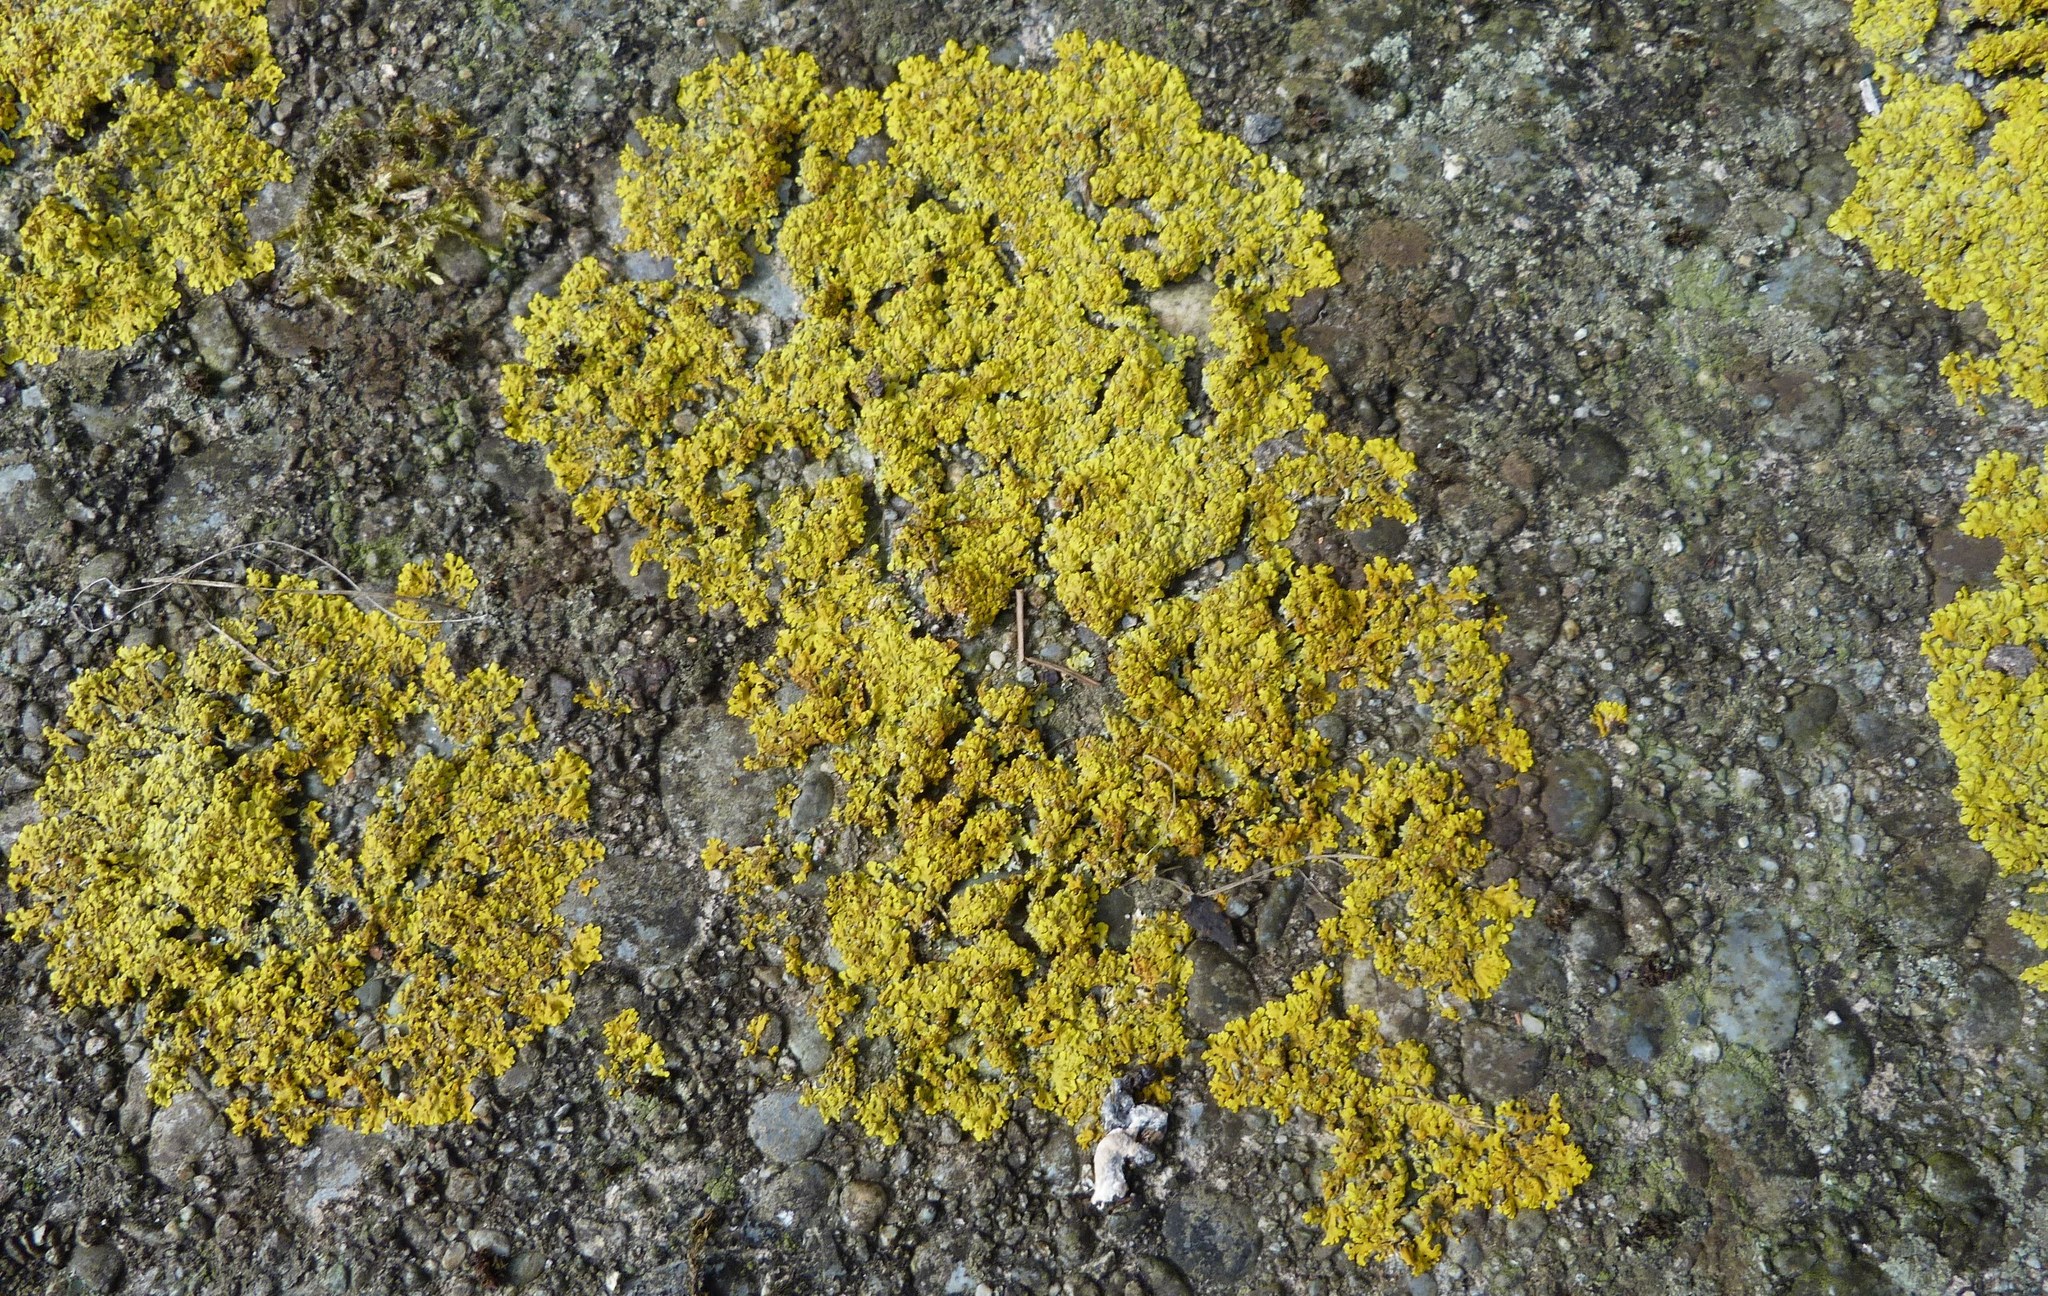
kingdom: Fungi
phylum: Ascomycota
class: Lecanoromycetes
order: Teloschistales
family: Teloschistaceae
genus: Dufourea
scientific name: Dufourea ligulata
